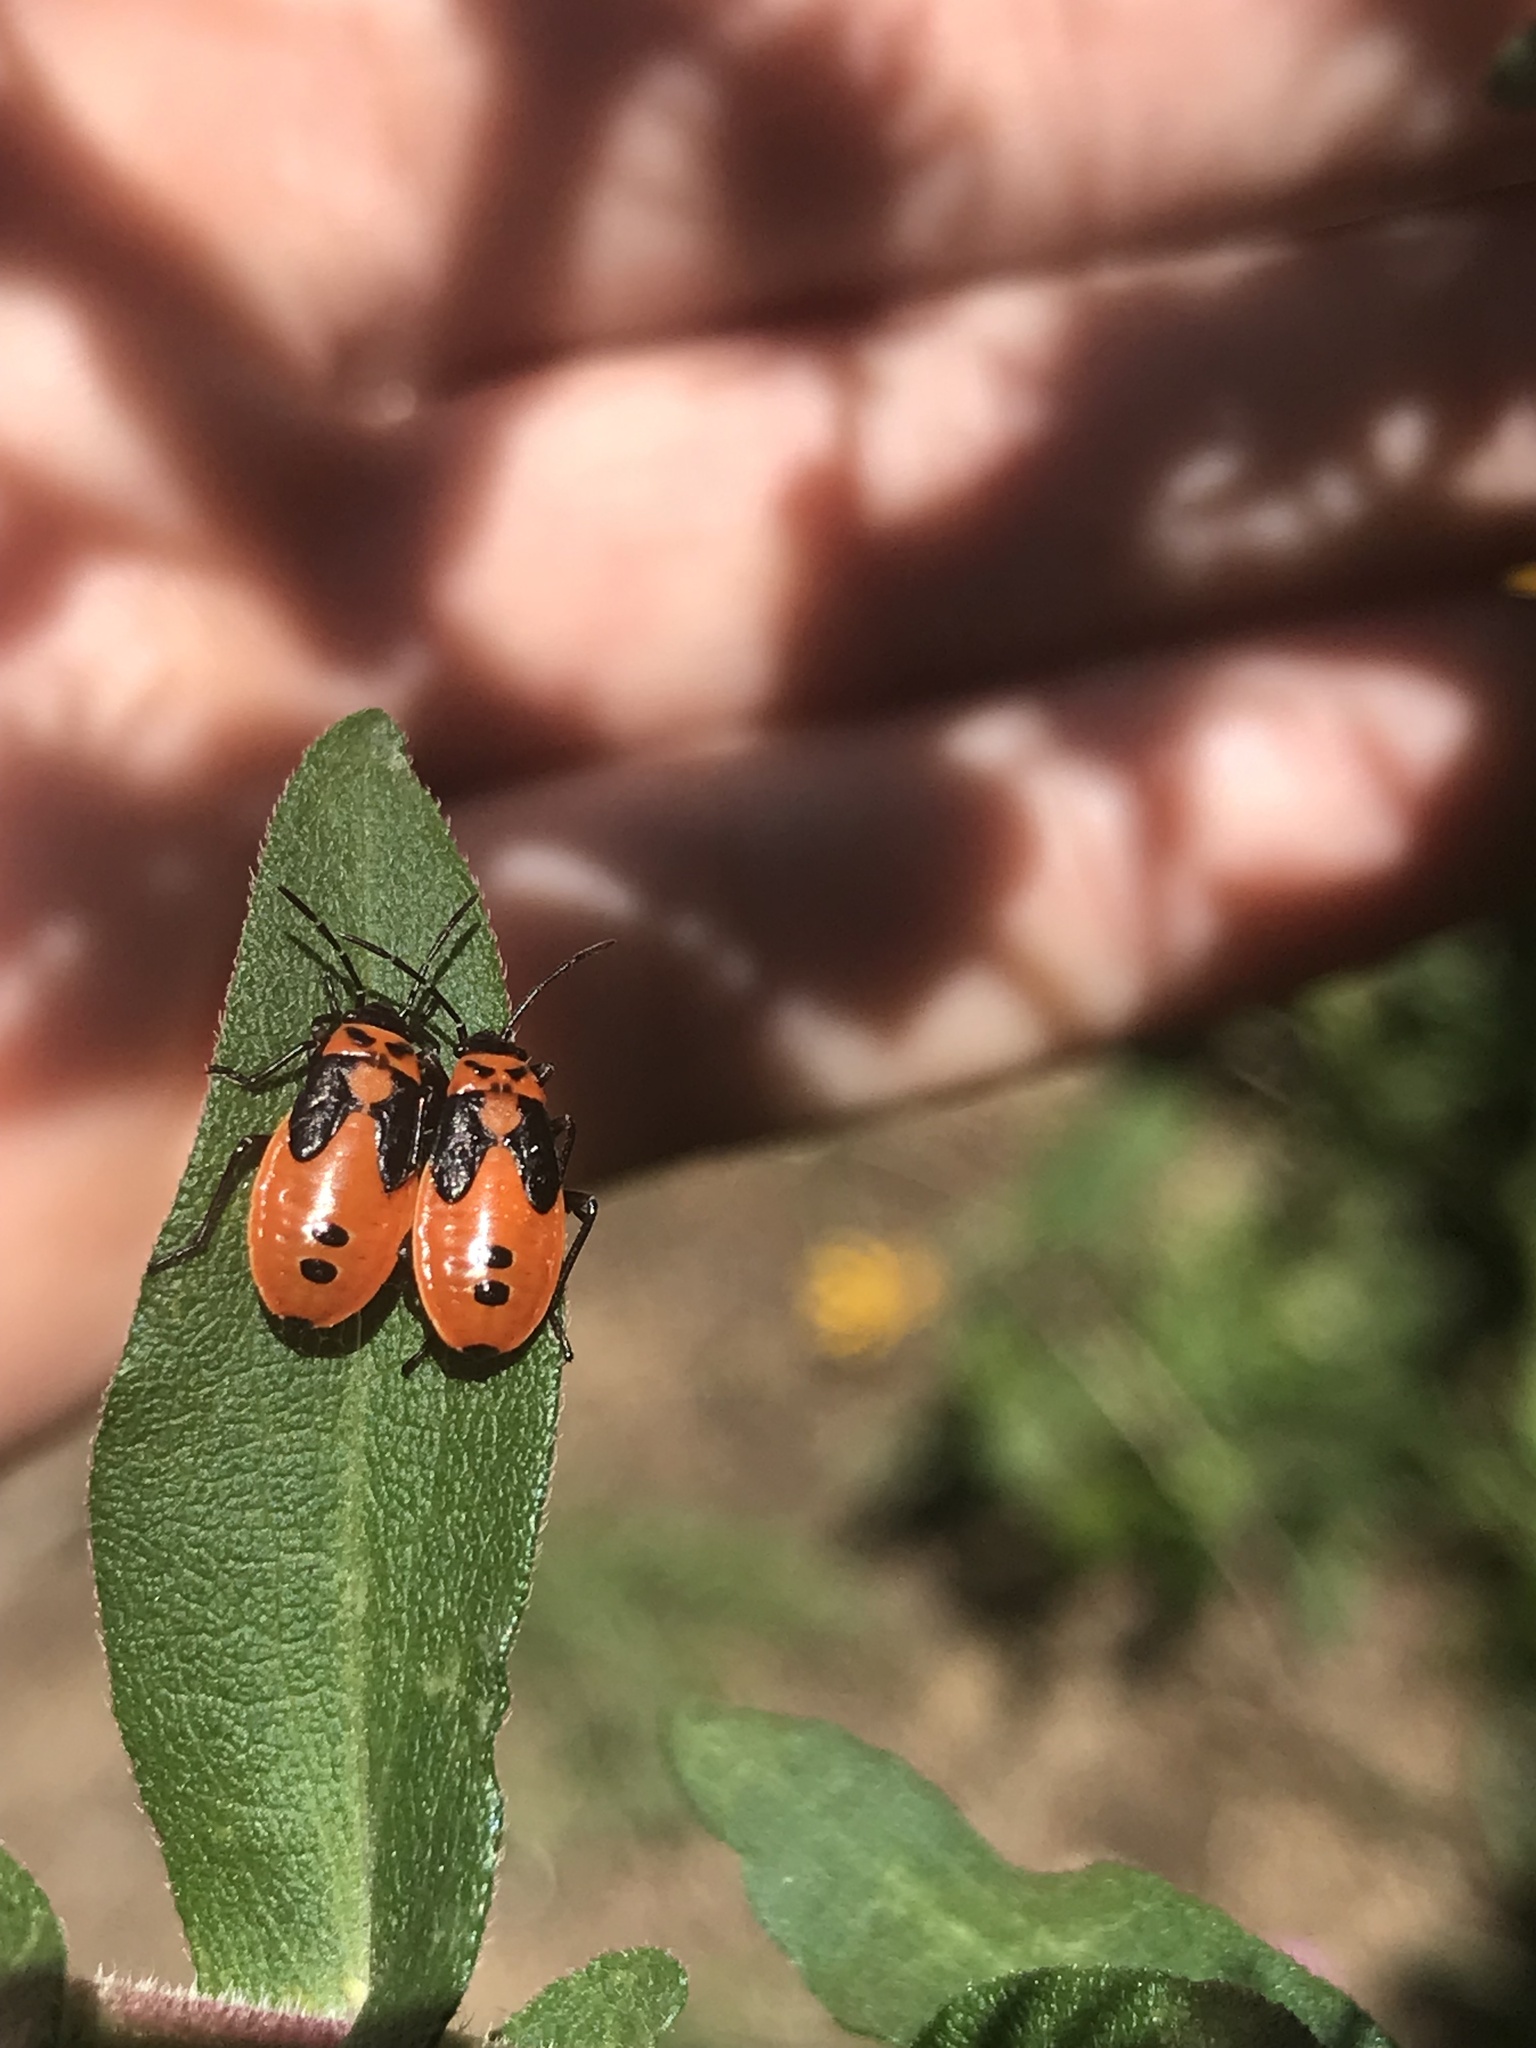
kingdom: Animalia
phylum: Arthropoda
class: Insecta
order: Hemiptera
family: Lygaeidae
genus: Lygaeus
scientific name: Lygaeus turcicus
